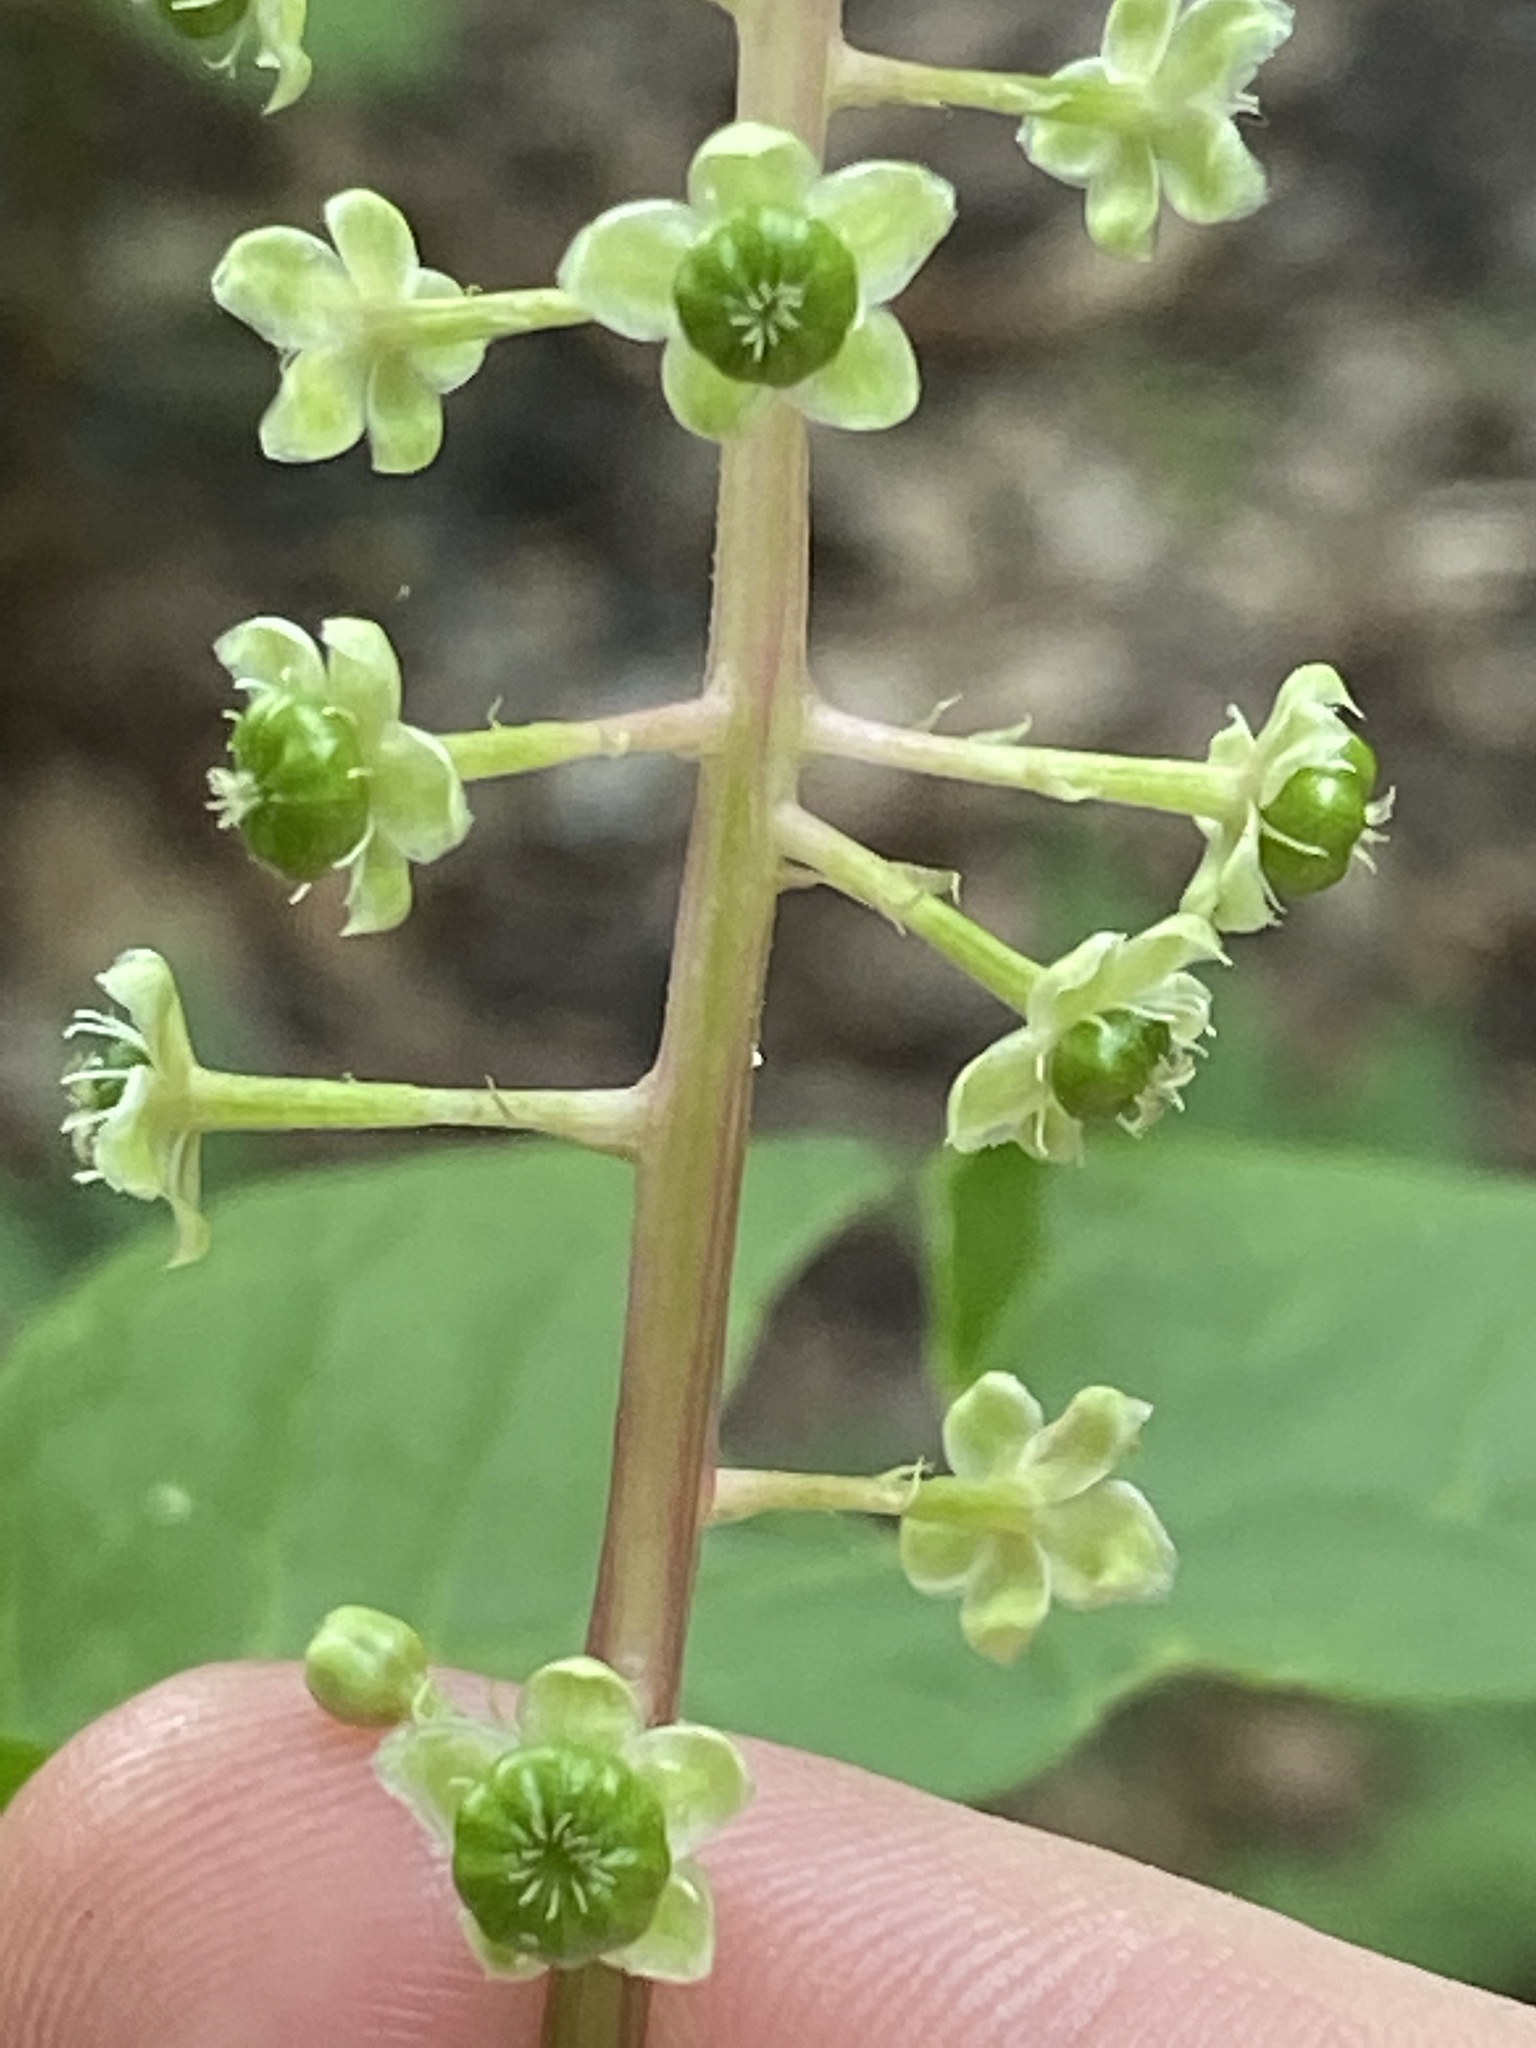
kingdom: Plantae
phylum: Tracheophyta
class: Magnoliopsida
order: Caryophyllales
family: Phytolaccaceae
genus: Phytolacca
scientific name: Phytolacca americana
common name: American pokeweed
